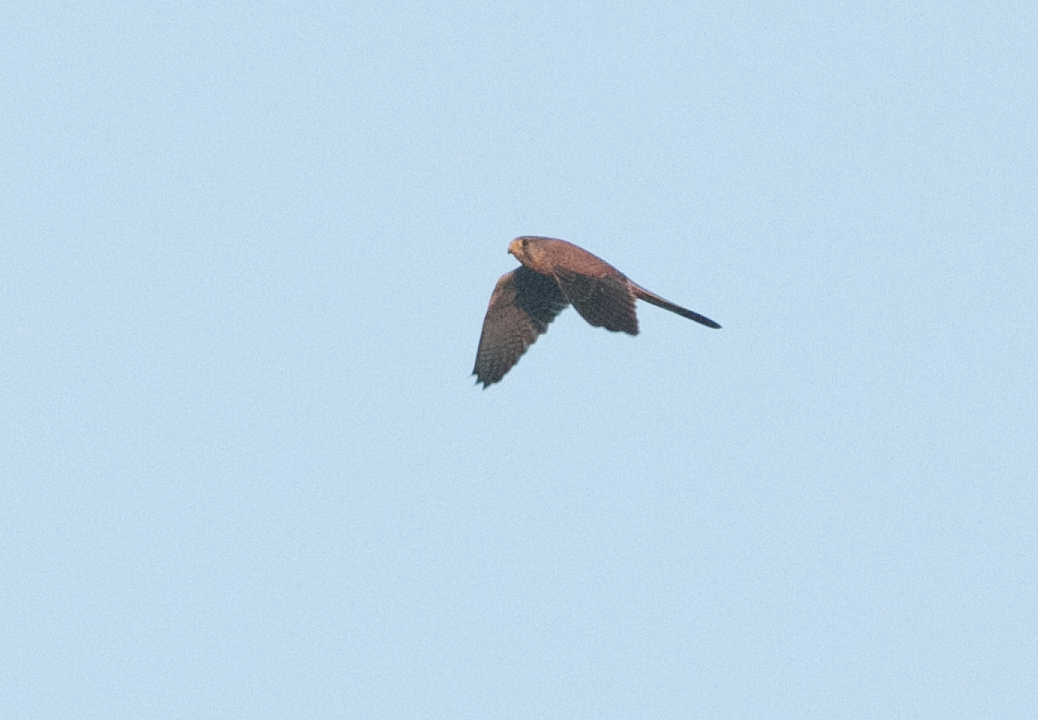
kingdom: Animalia
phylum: Chordata
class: Aves
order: Falconiformes
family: Falconidae
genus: Falco
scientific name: Falco tinnunculus
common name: Common kestrel
